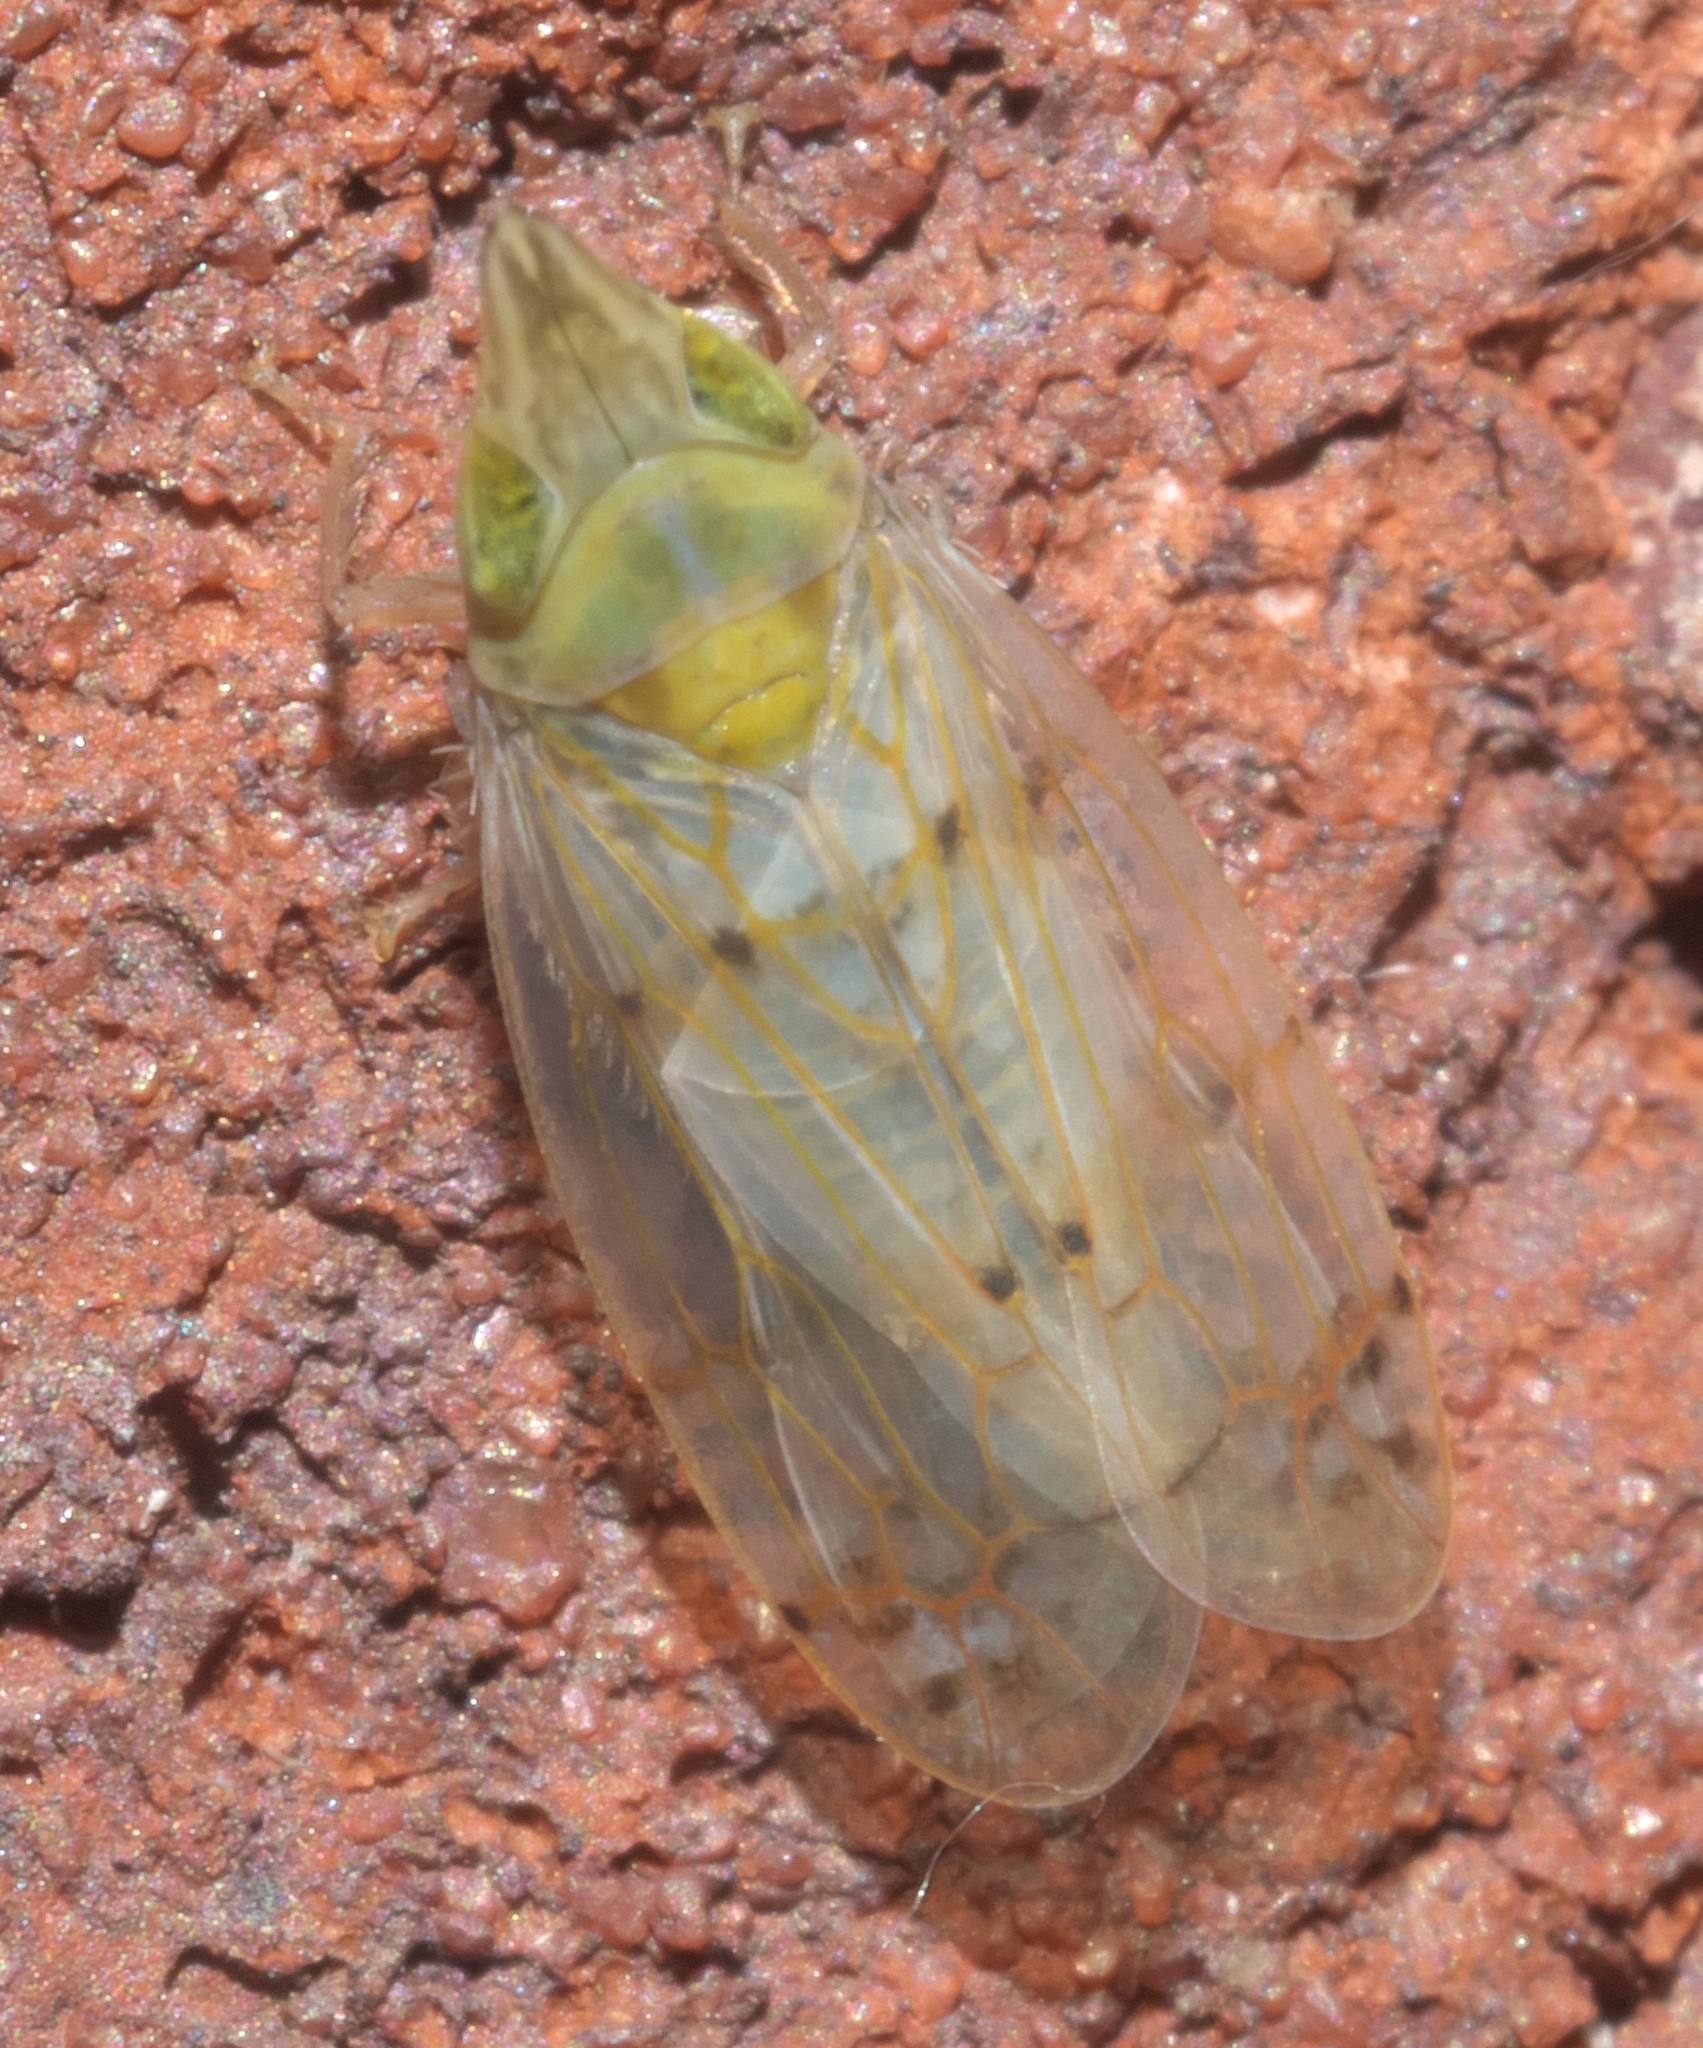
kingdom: Animalia
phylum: Arthropoda
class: Insecta
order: Hemiptera
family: Cicadellidae
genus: Japananus
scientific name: Japananus hyalinus
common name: The japanese maple leafhopper
